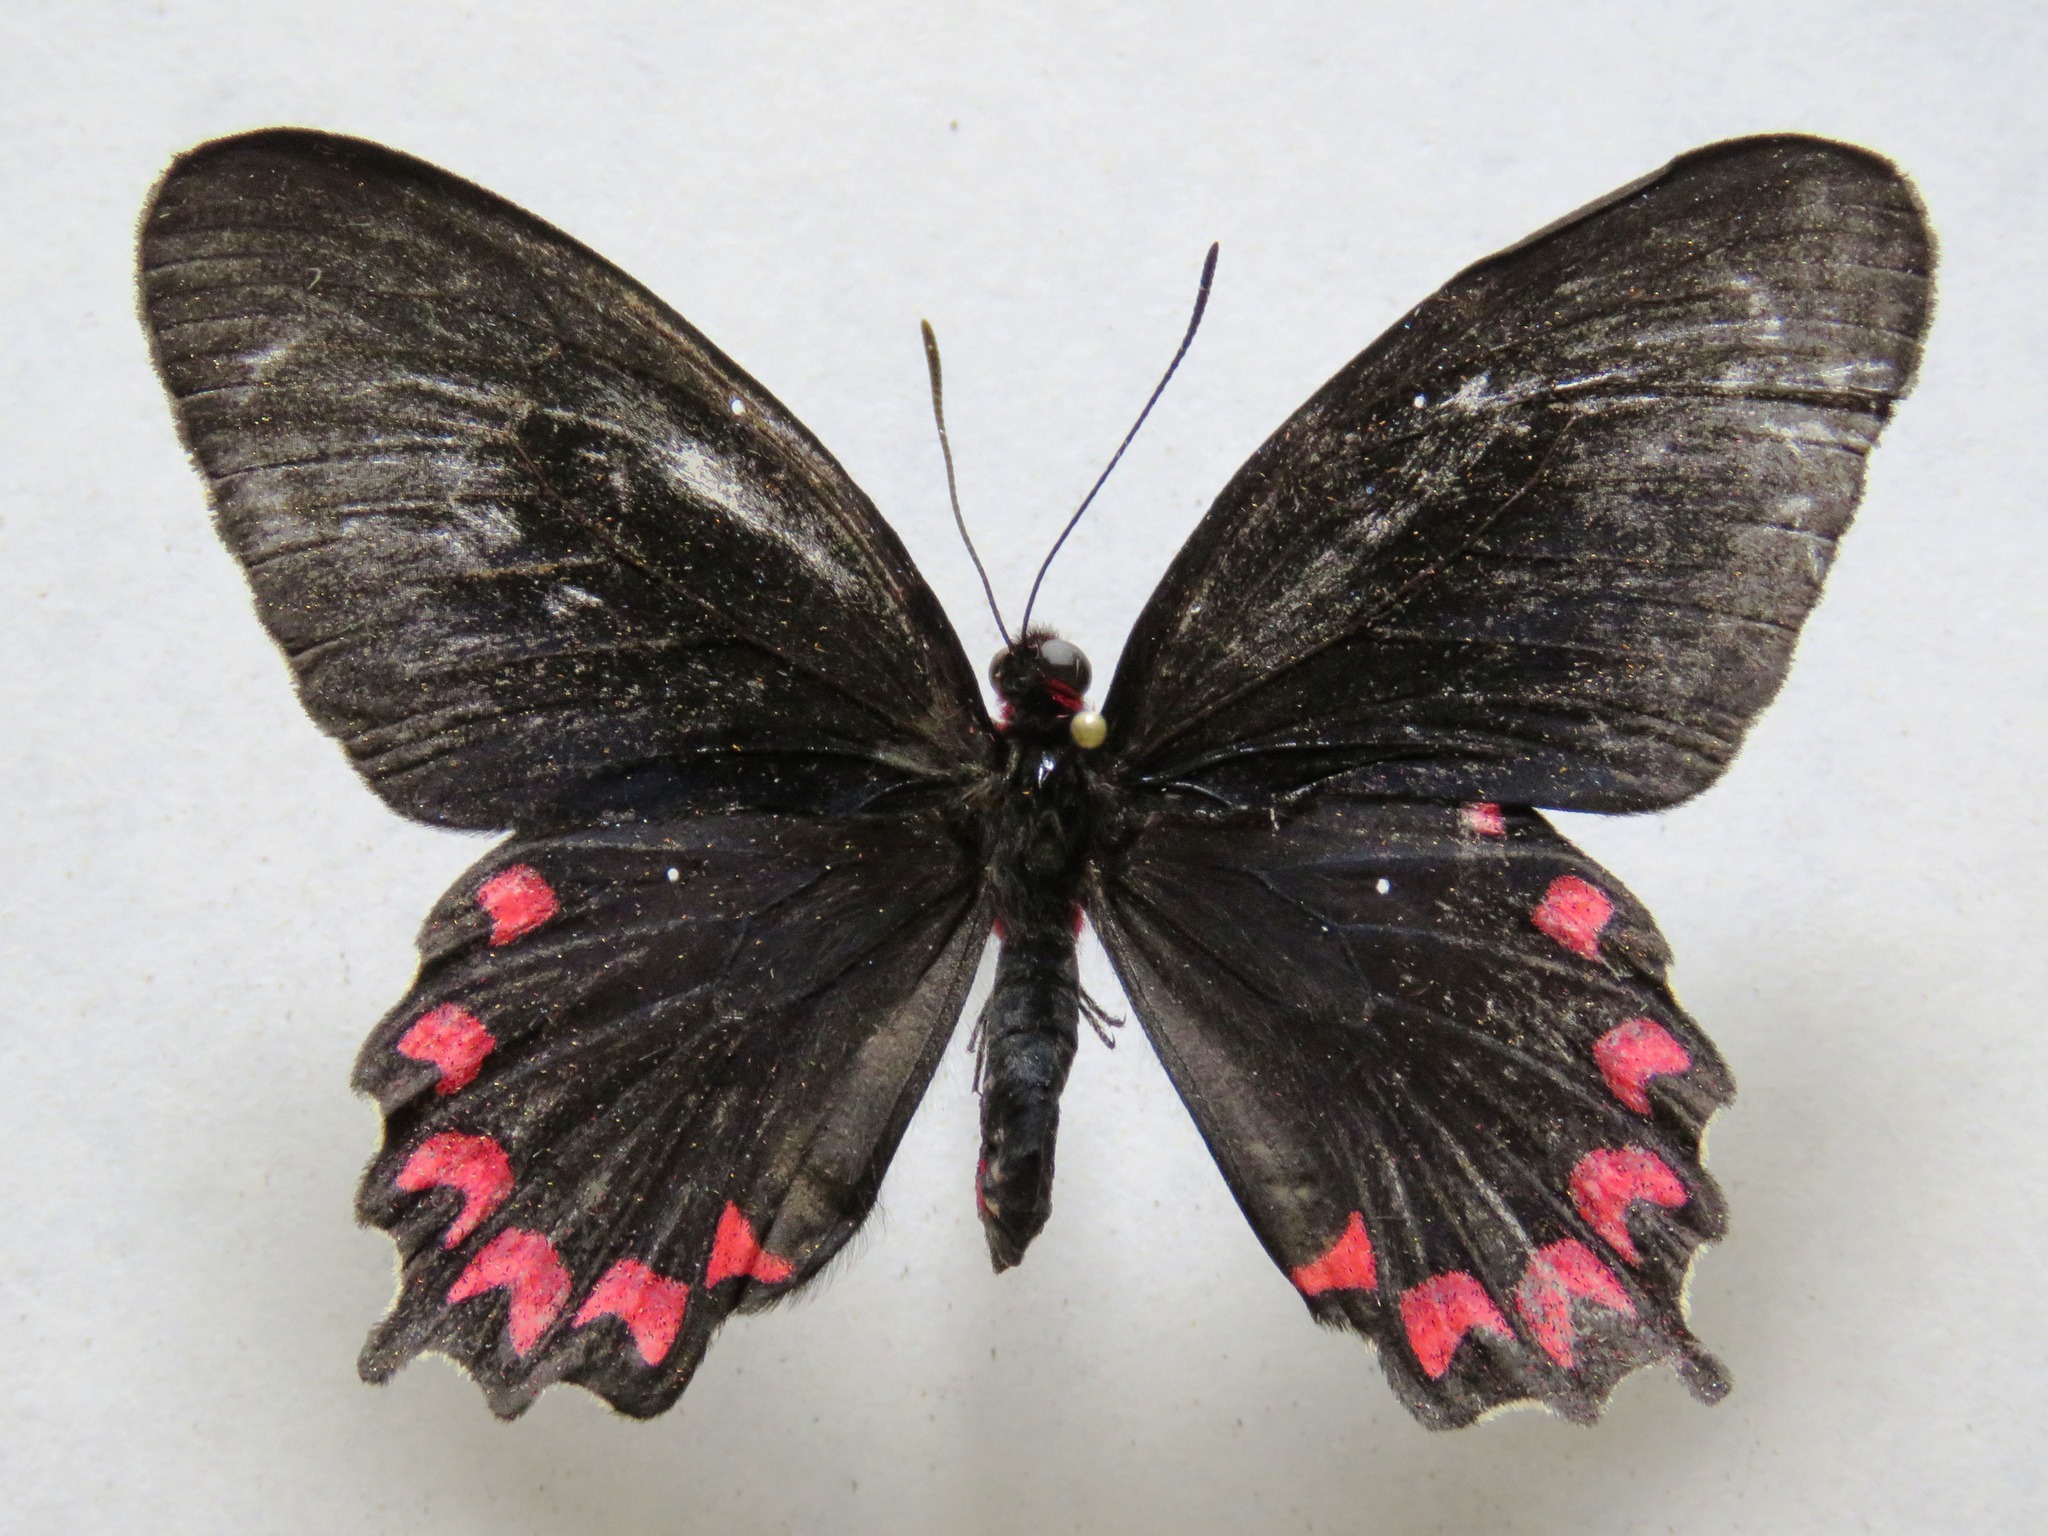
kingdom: Animalia
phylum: Arthropoda
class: Insecta
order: Lepidoptera
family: Papilionidae
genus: Parides
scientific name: Parides montezuma
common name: Montezuma's cattleheart
